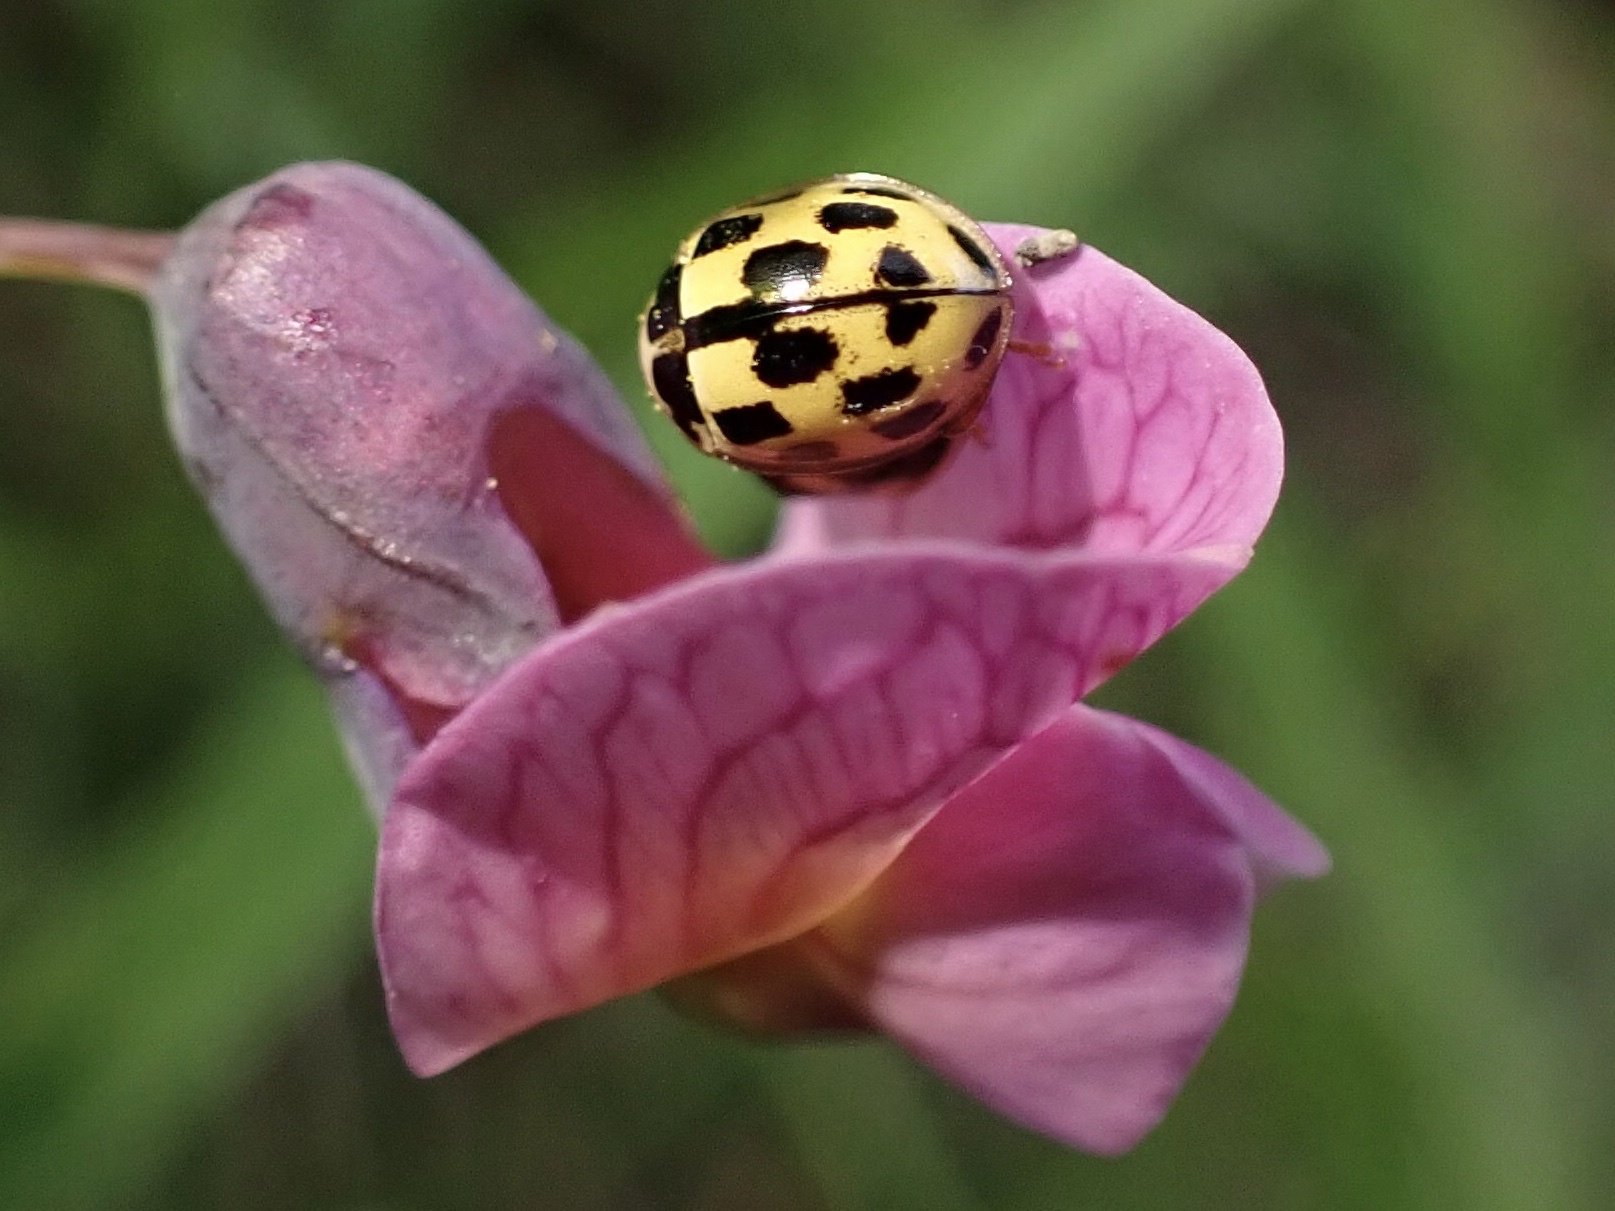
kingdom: Animalia
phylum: Arthropoda
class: Insecta
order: Coleoptera
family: Coccinellidae
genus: Propylaea
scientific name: Propylaea quatuordecimpunctata
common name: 14-spotted ladybird beetle
